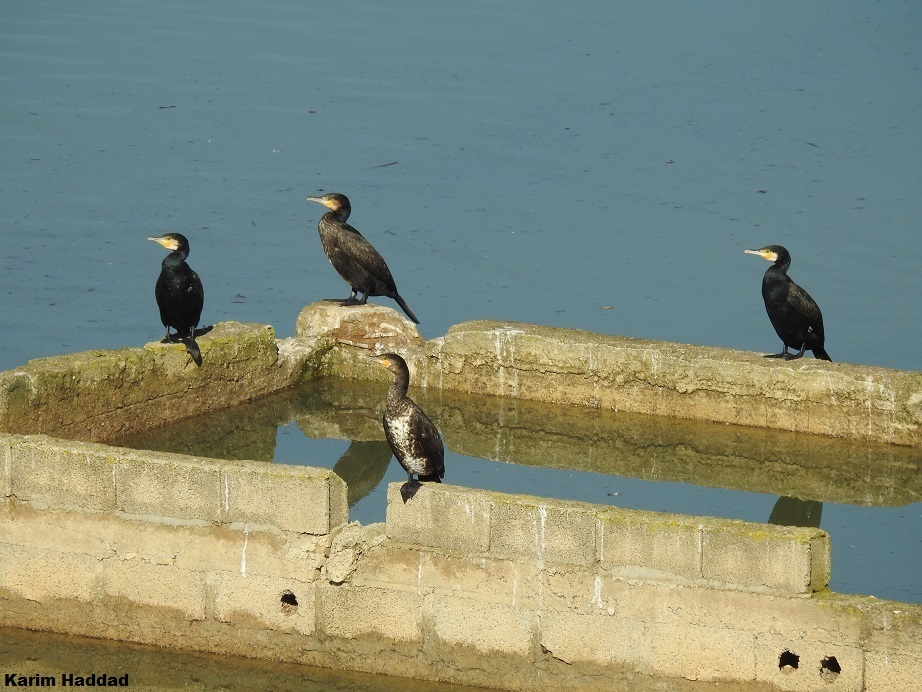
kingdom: Animalia
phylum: Chordata
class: Aves
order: Suliformes
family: Phalacrocoracidae
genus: Phalacrocorax
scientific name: Phalacrocorax carbo
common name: Great cormorant
